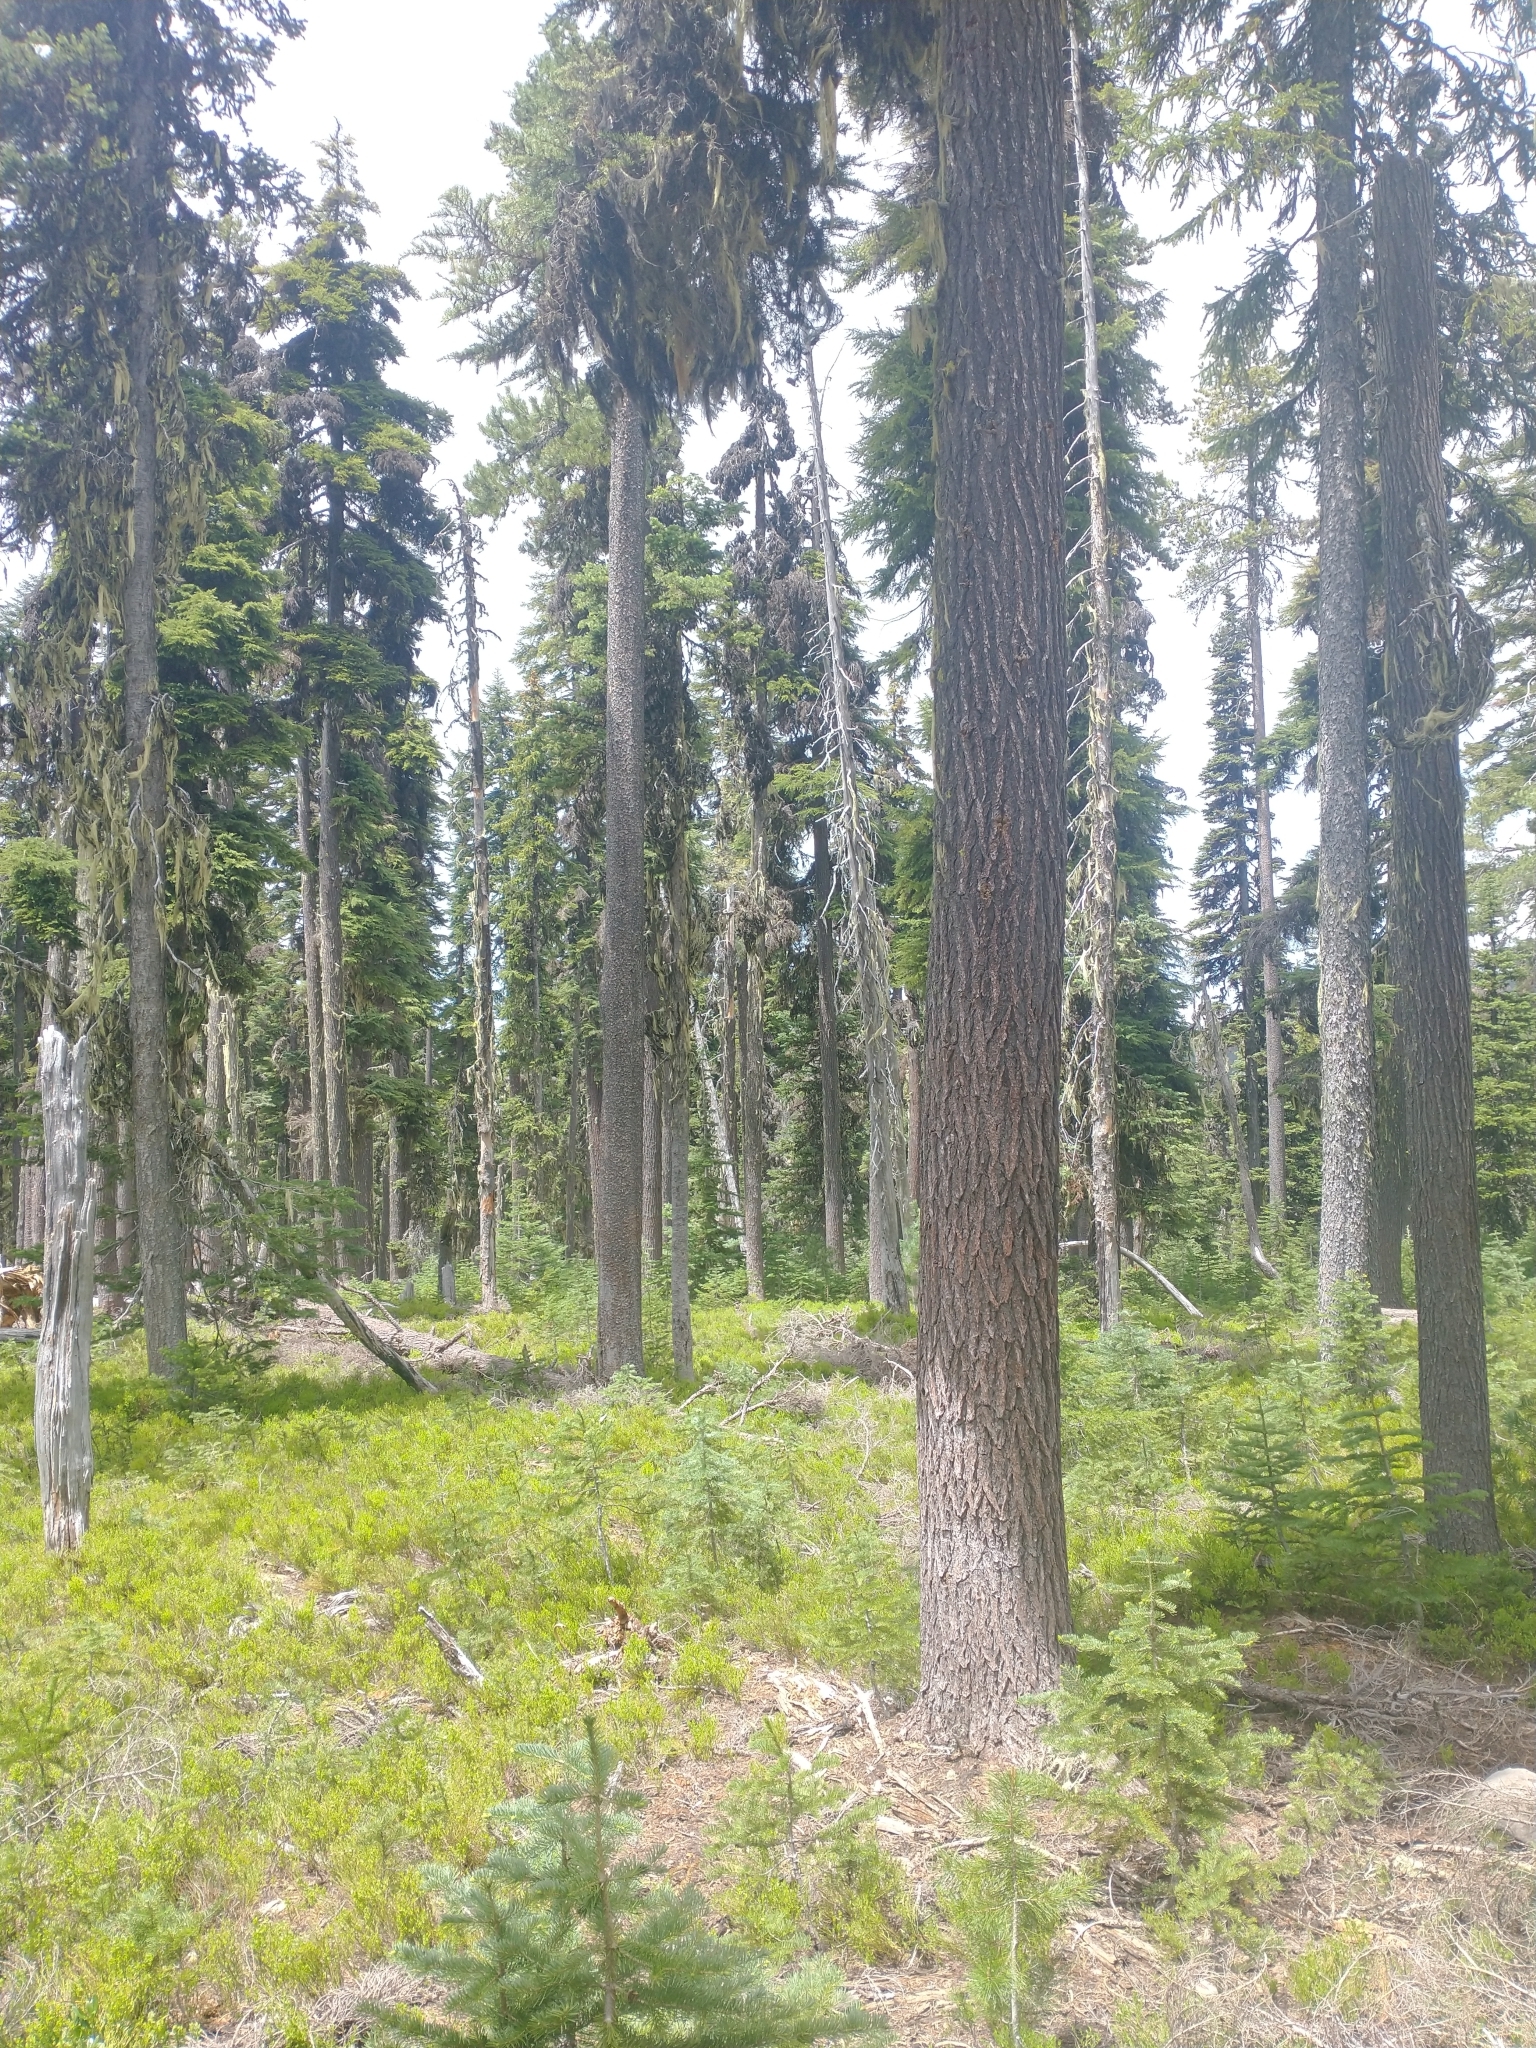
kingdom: Plantae
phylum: Tracheophyta
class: Magnoliopsida
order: Ericales
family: Ericaceae
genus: Vaccinium
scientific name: Vaccinium scoparium
